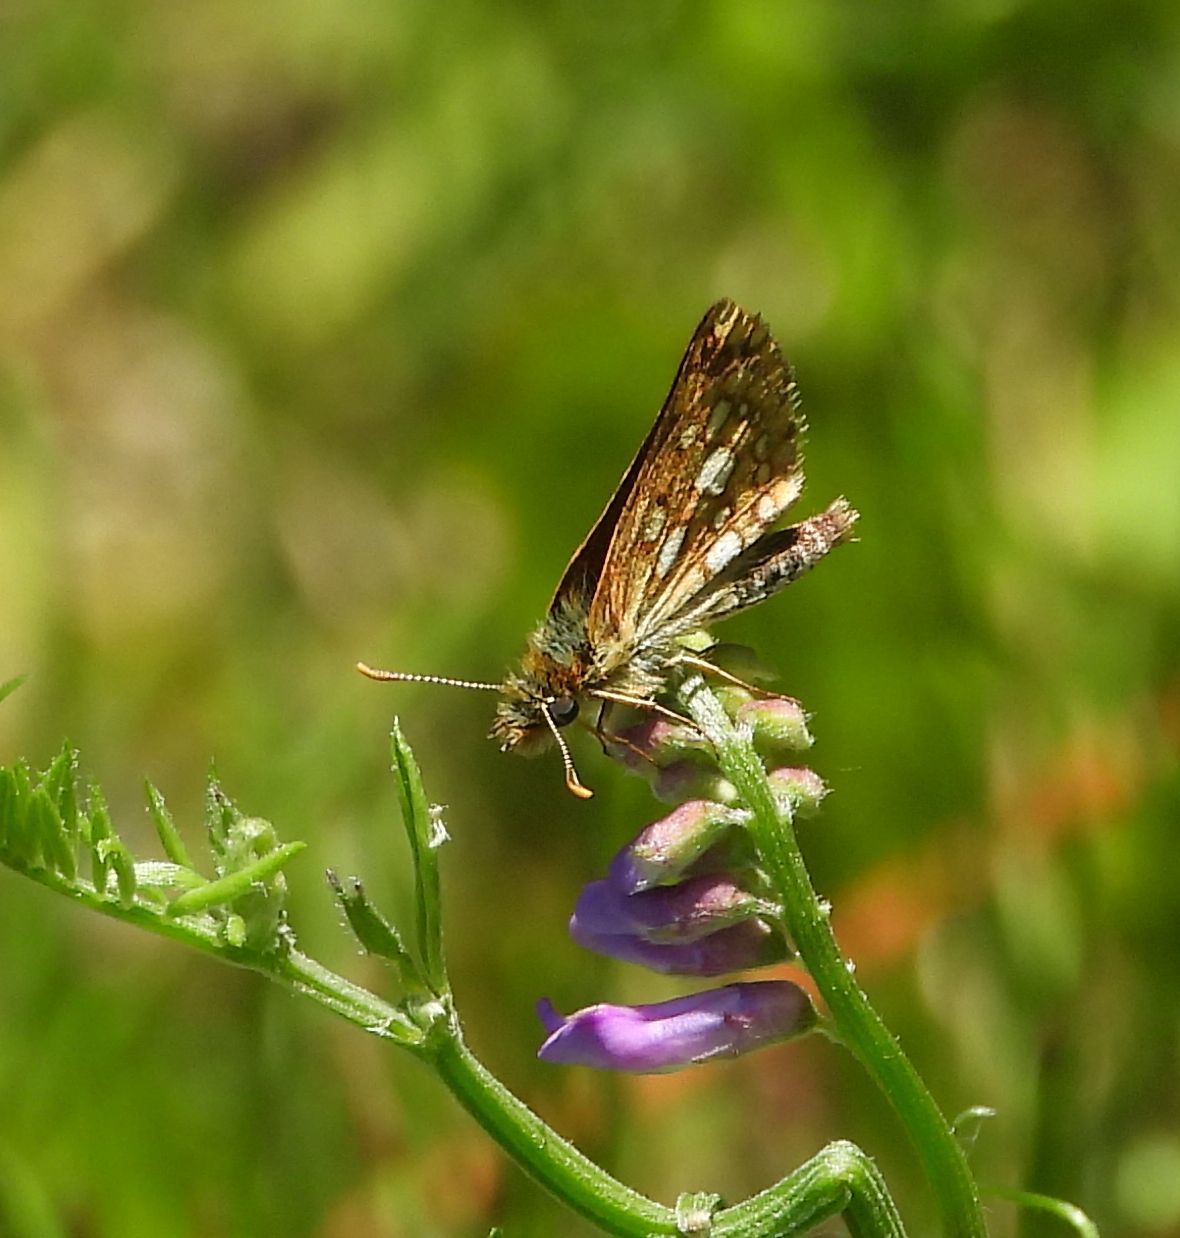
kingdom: Animalia
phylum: Arthropoda
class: Insecta
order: Lepidoptera
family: Hesperiidae
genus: Carterocephalus
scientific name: Carterocephalus mandan
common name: Arctic skipperling
